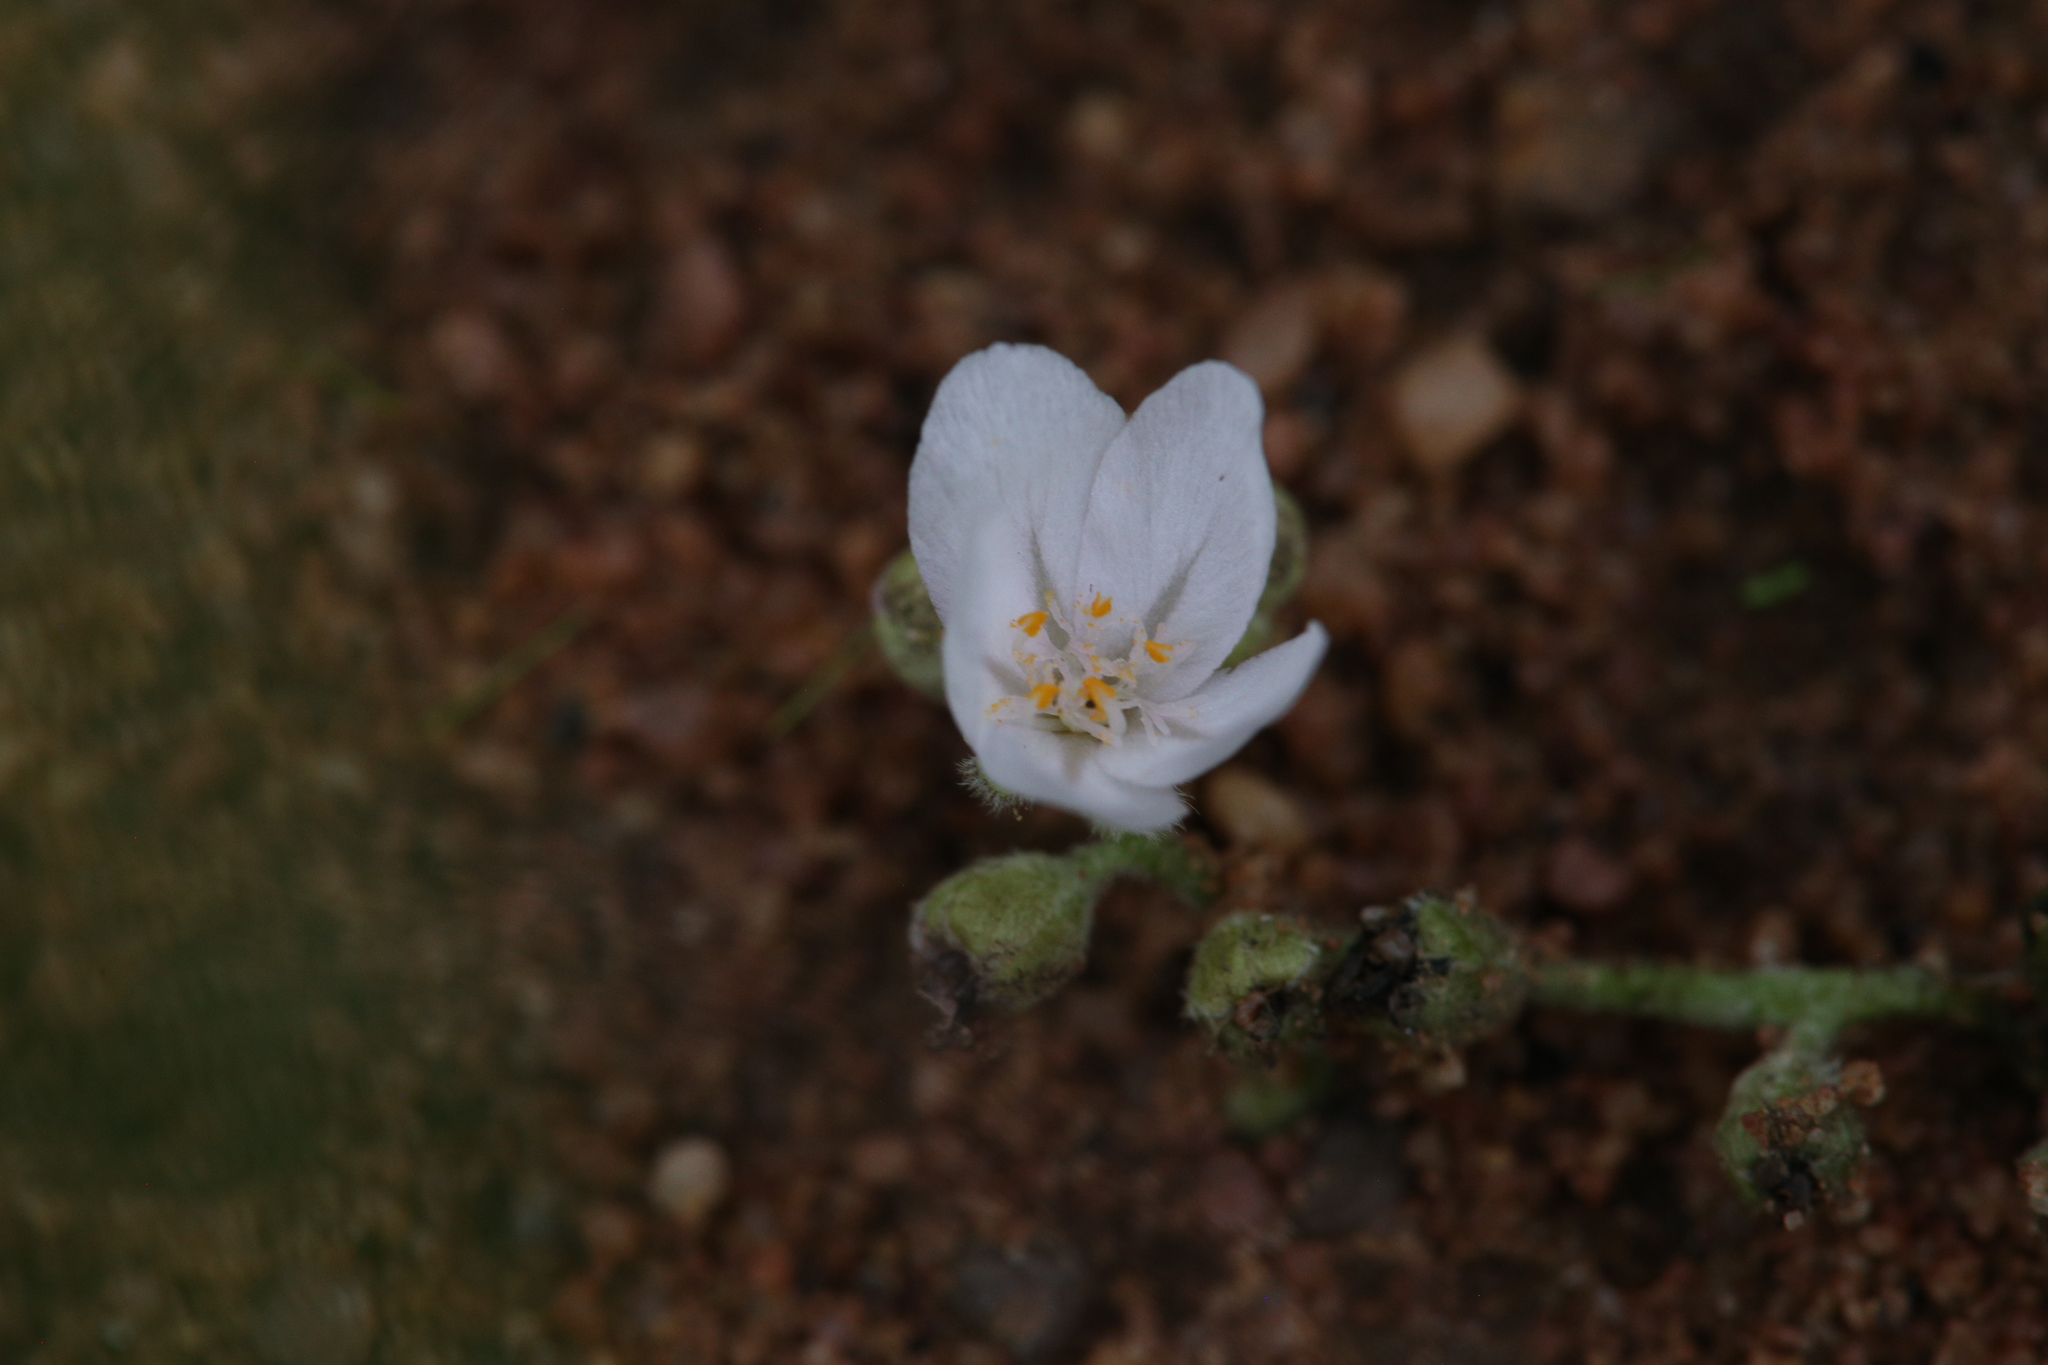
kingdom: Plantae
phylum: Tracheophyta
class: Magnoliopsida
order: Caryophyllales
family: Droseraceae
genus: Drosera
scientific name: Drosera ordensis
